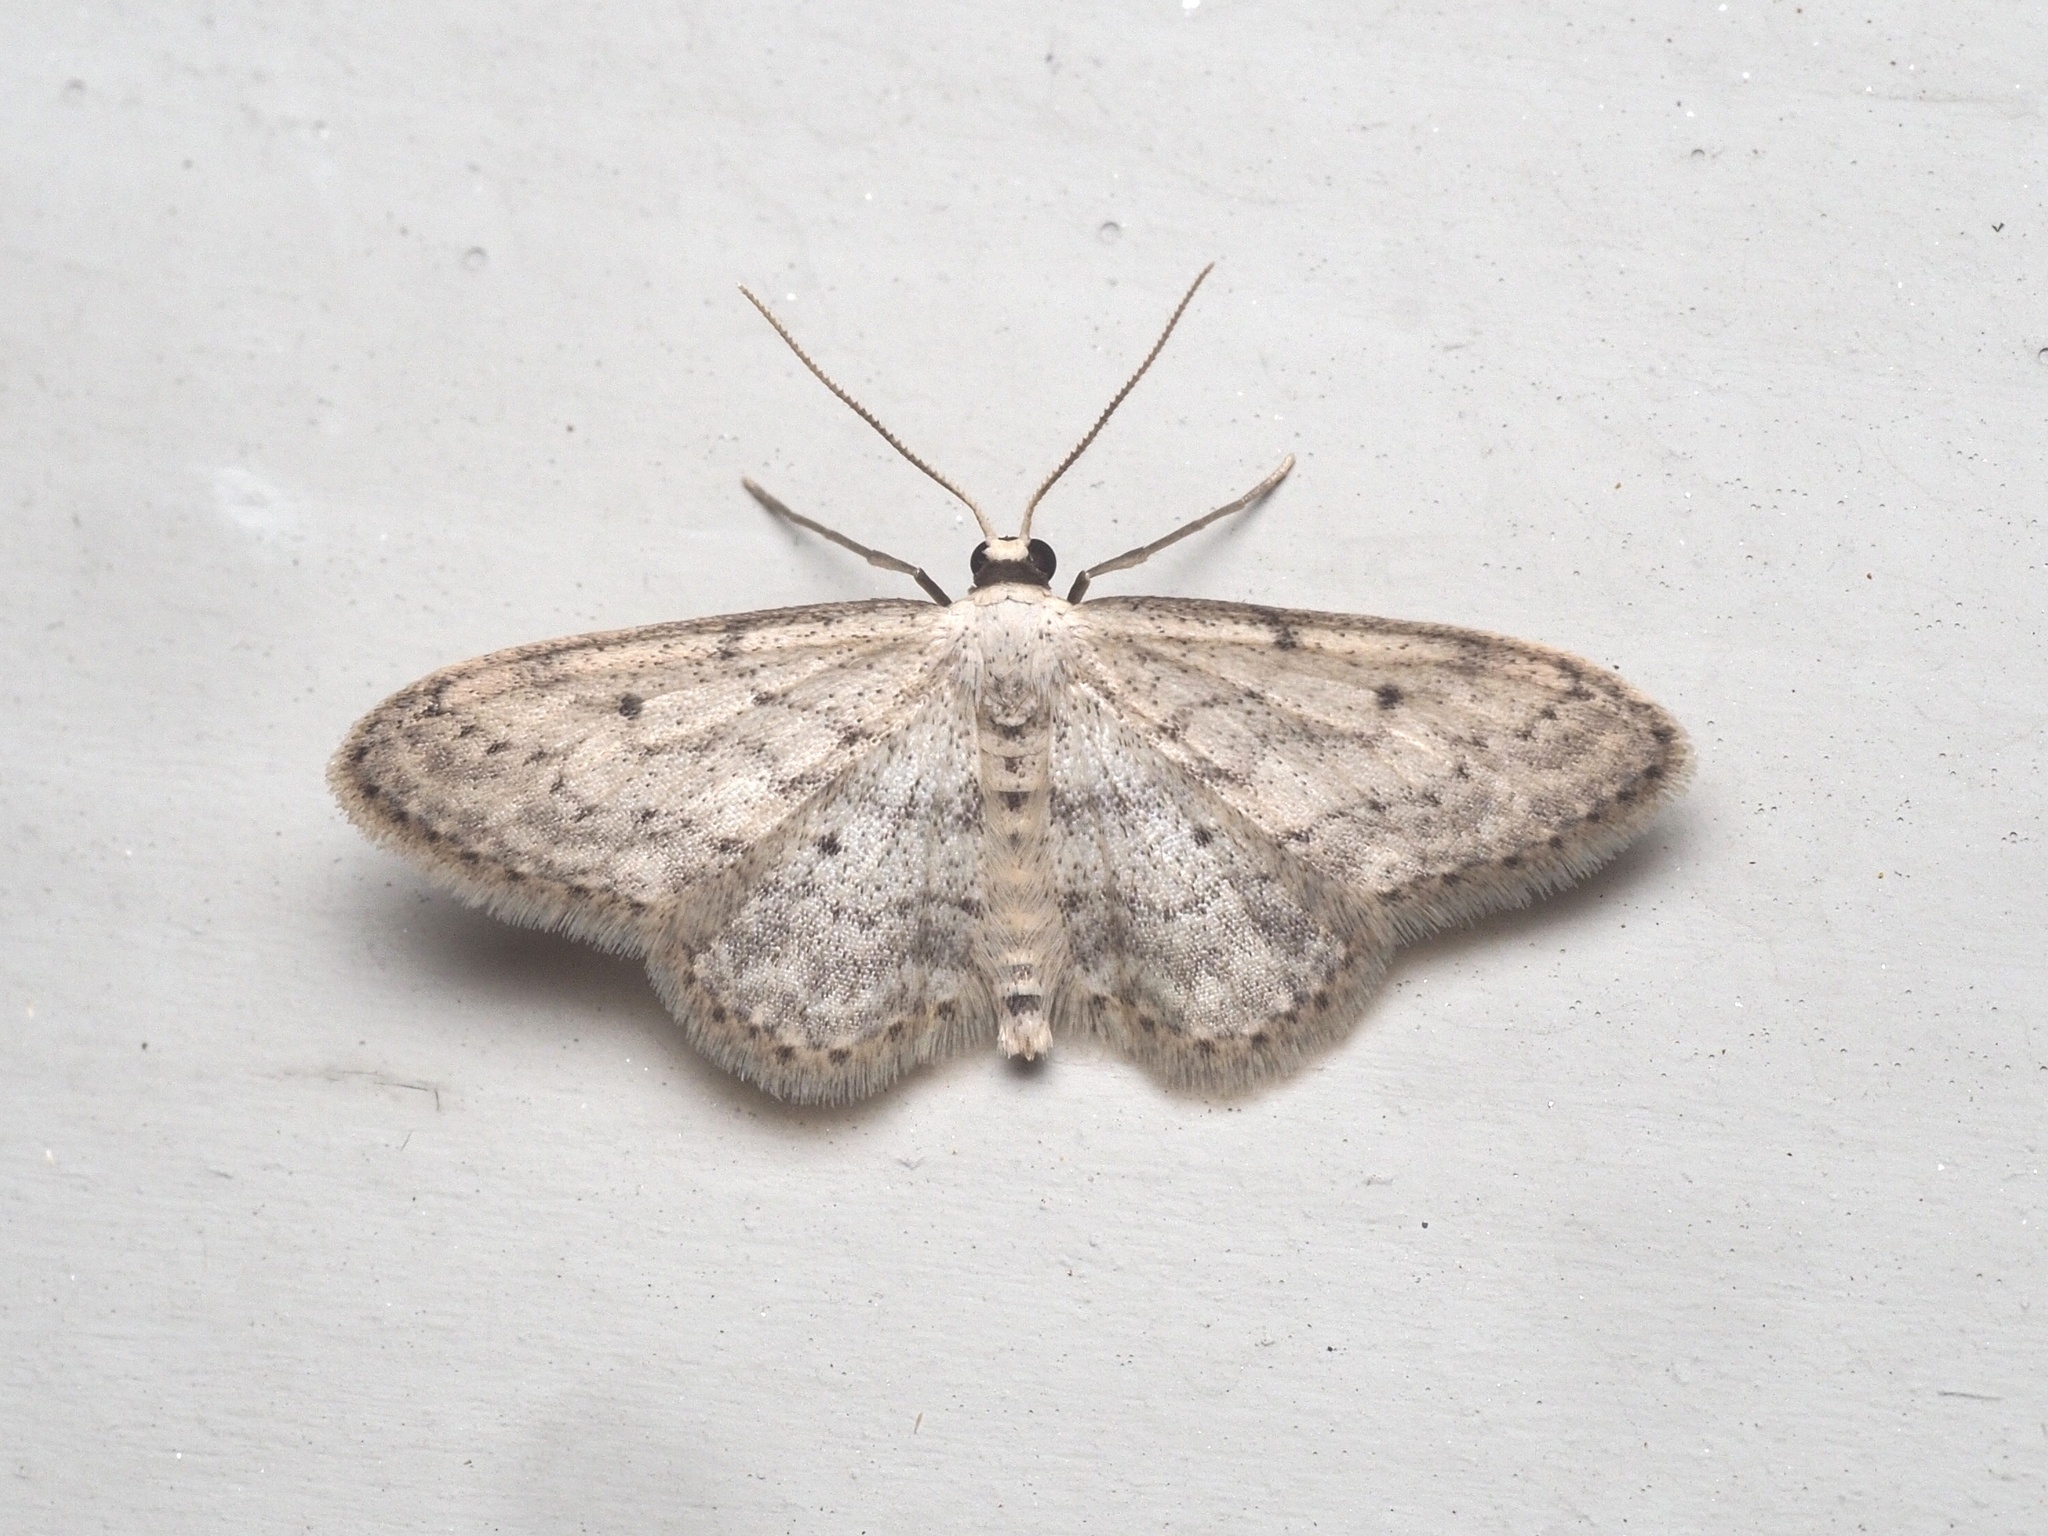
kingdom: Animalia
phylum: Arthropoda
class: Insecta
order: Lepidoptera
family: Geometridae
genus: Idaea
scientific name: Idaea seriata
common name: Small dusty wave
